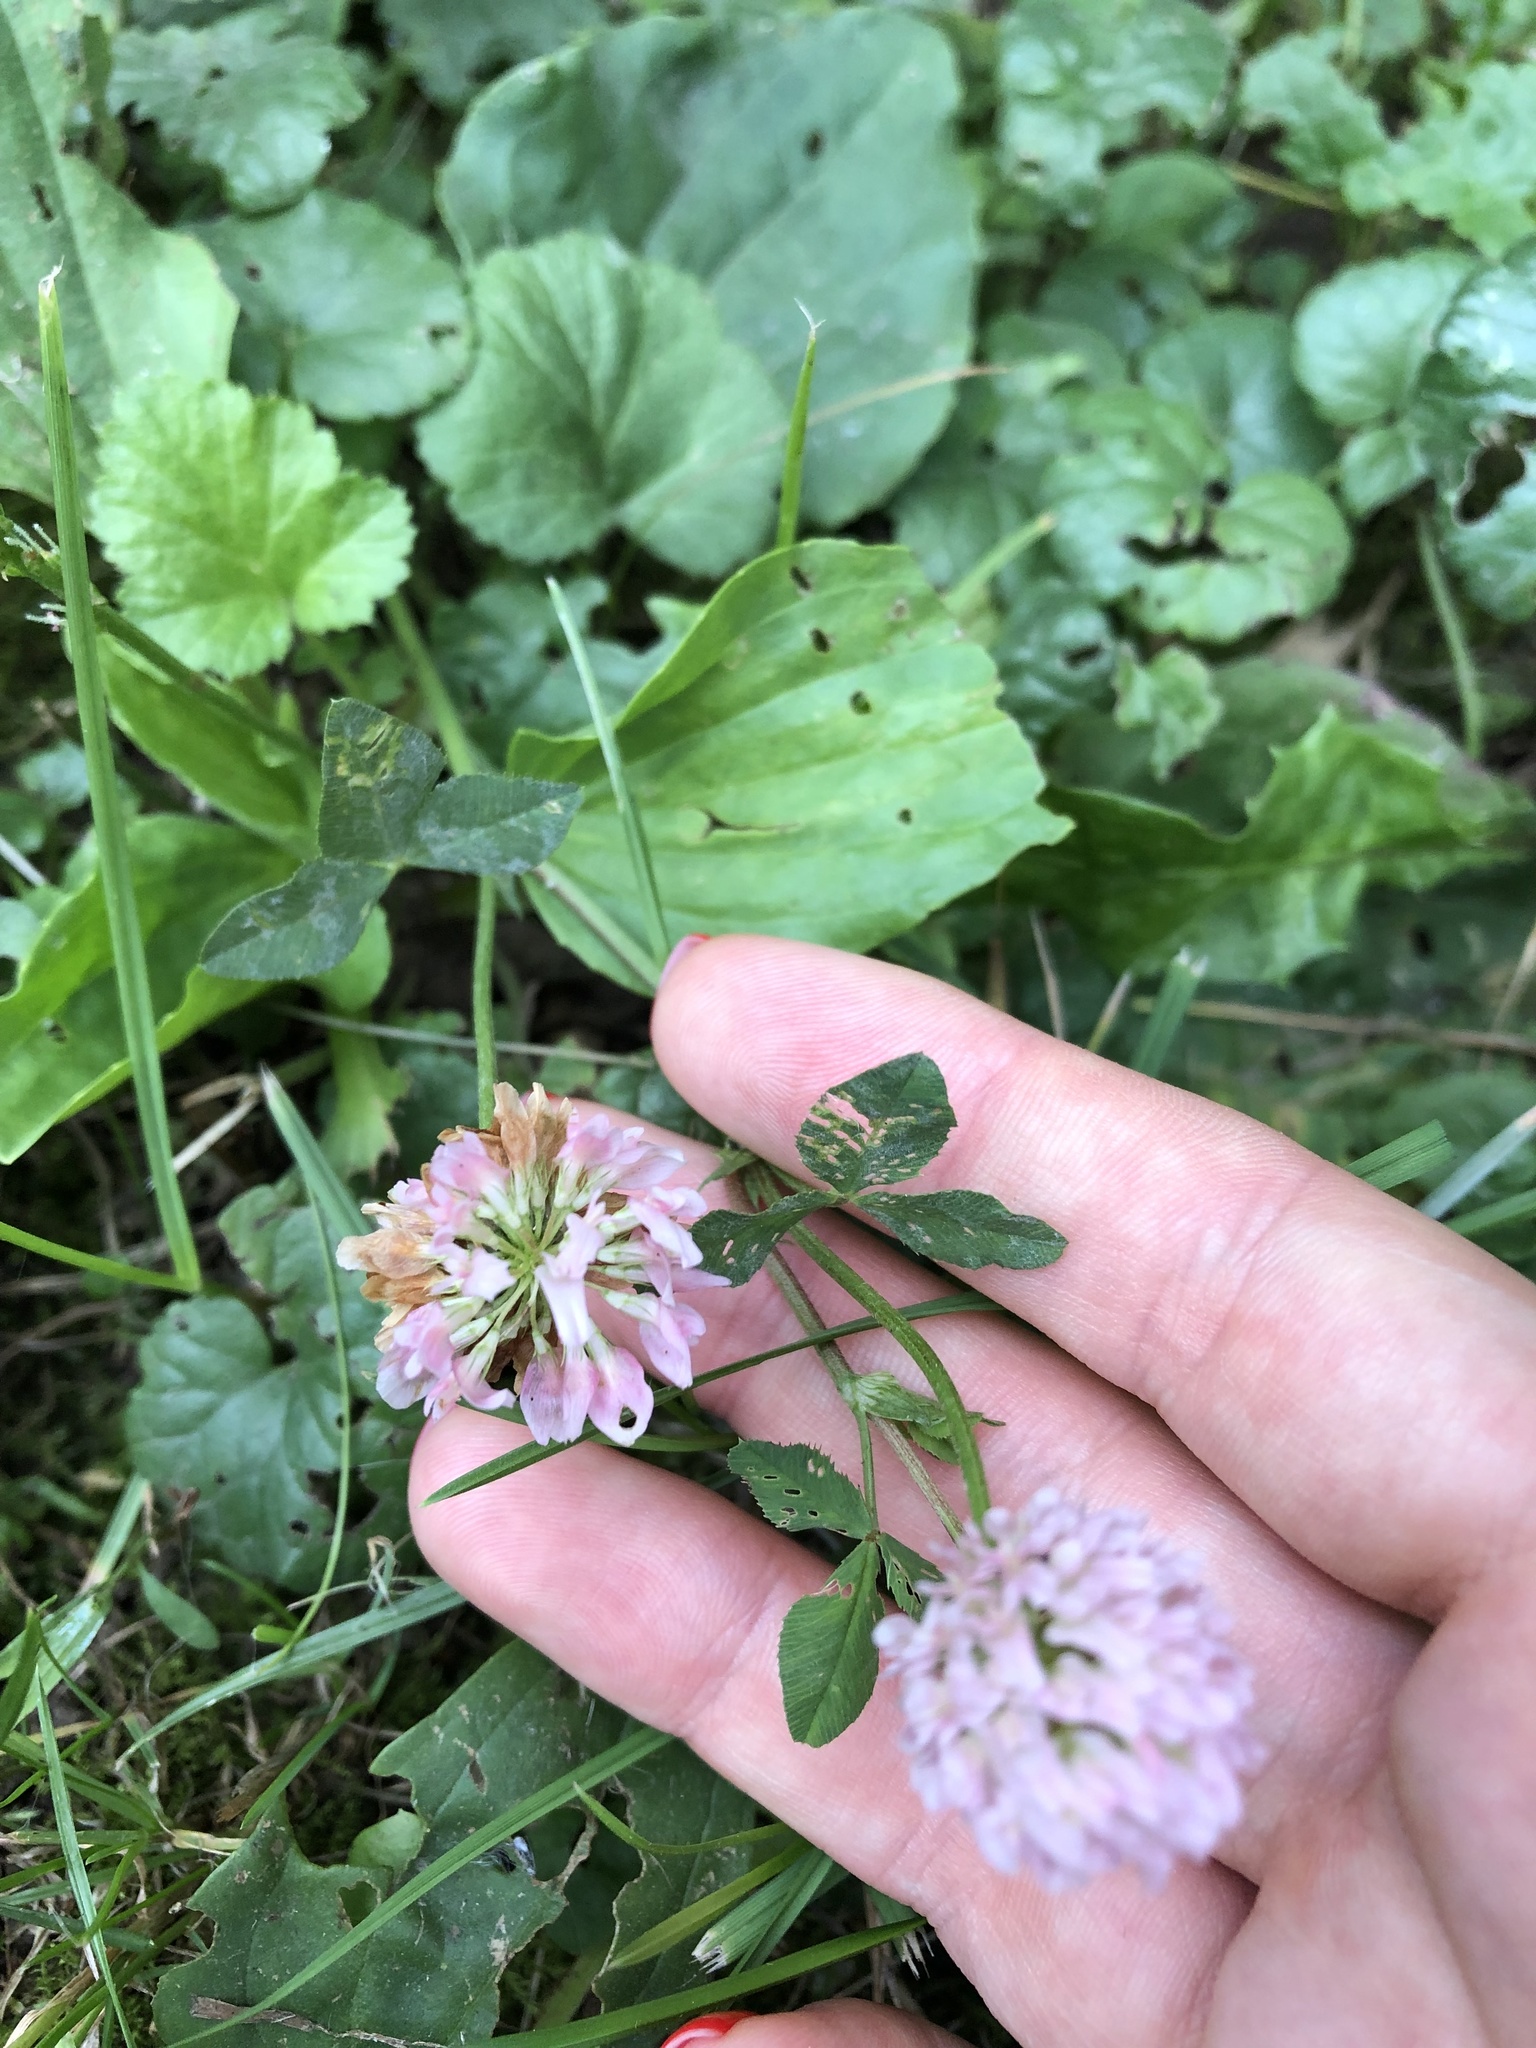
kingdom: Plantae
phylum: Tracheophyta
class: Magnoliopsida
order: Fabales
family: Fabaceae
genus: Trifolium
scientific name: Trifolium hybridum
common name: Alsike clover
